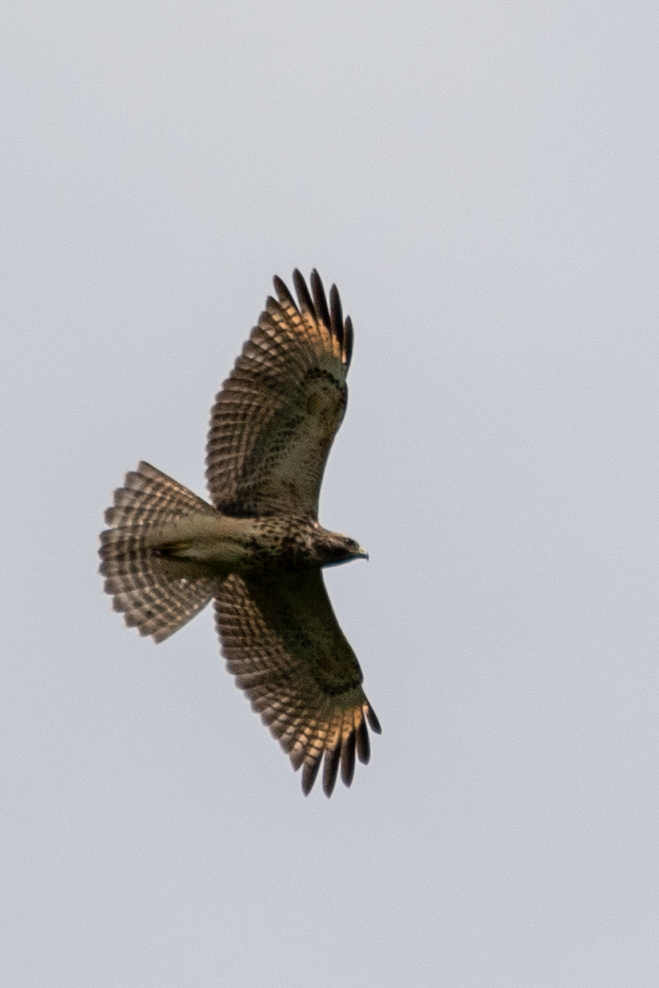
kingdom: Animalia
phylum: Chordata
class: Aves
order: Accipitriformes
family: Accipitridae
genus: Buteo
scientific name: Buteo lineatus
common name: Red-shouldered hawk
